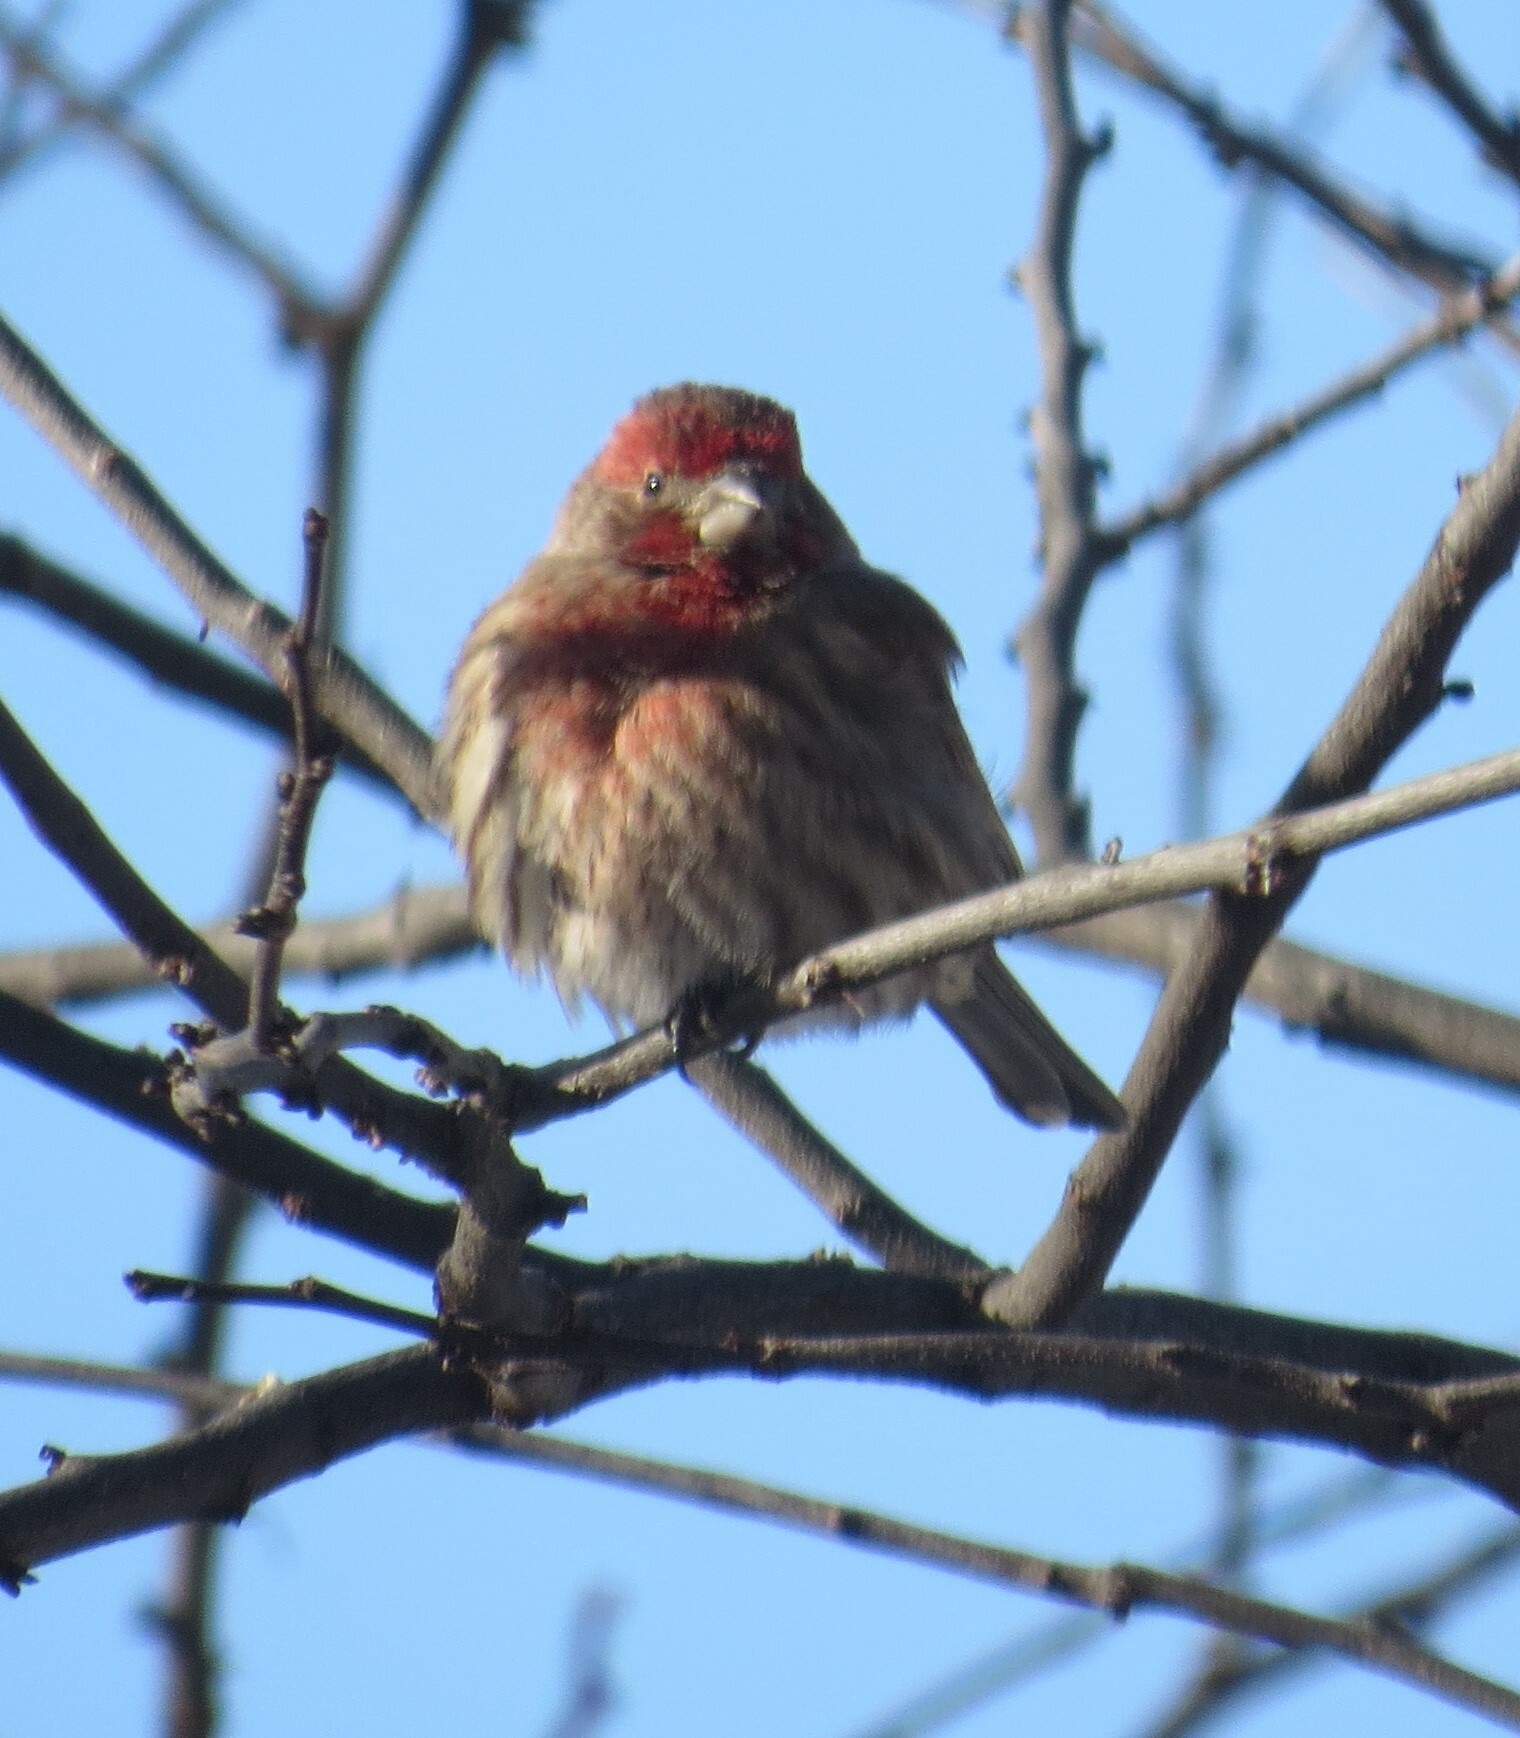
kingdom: Animalia
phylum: Chordata
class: Aves
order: Passeriformes
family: Fringillidae
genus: Haemorhous
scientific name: Haemorhous mexicanus
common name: House finch
